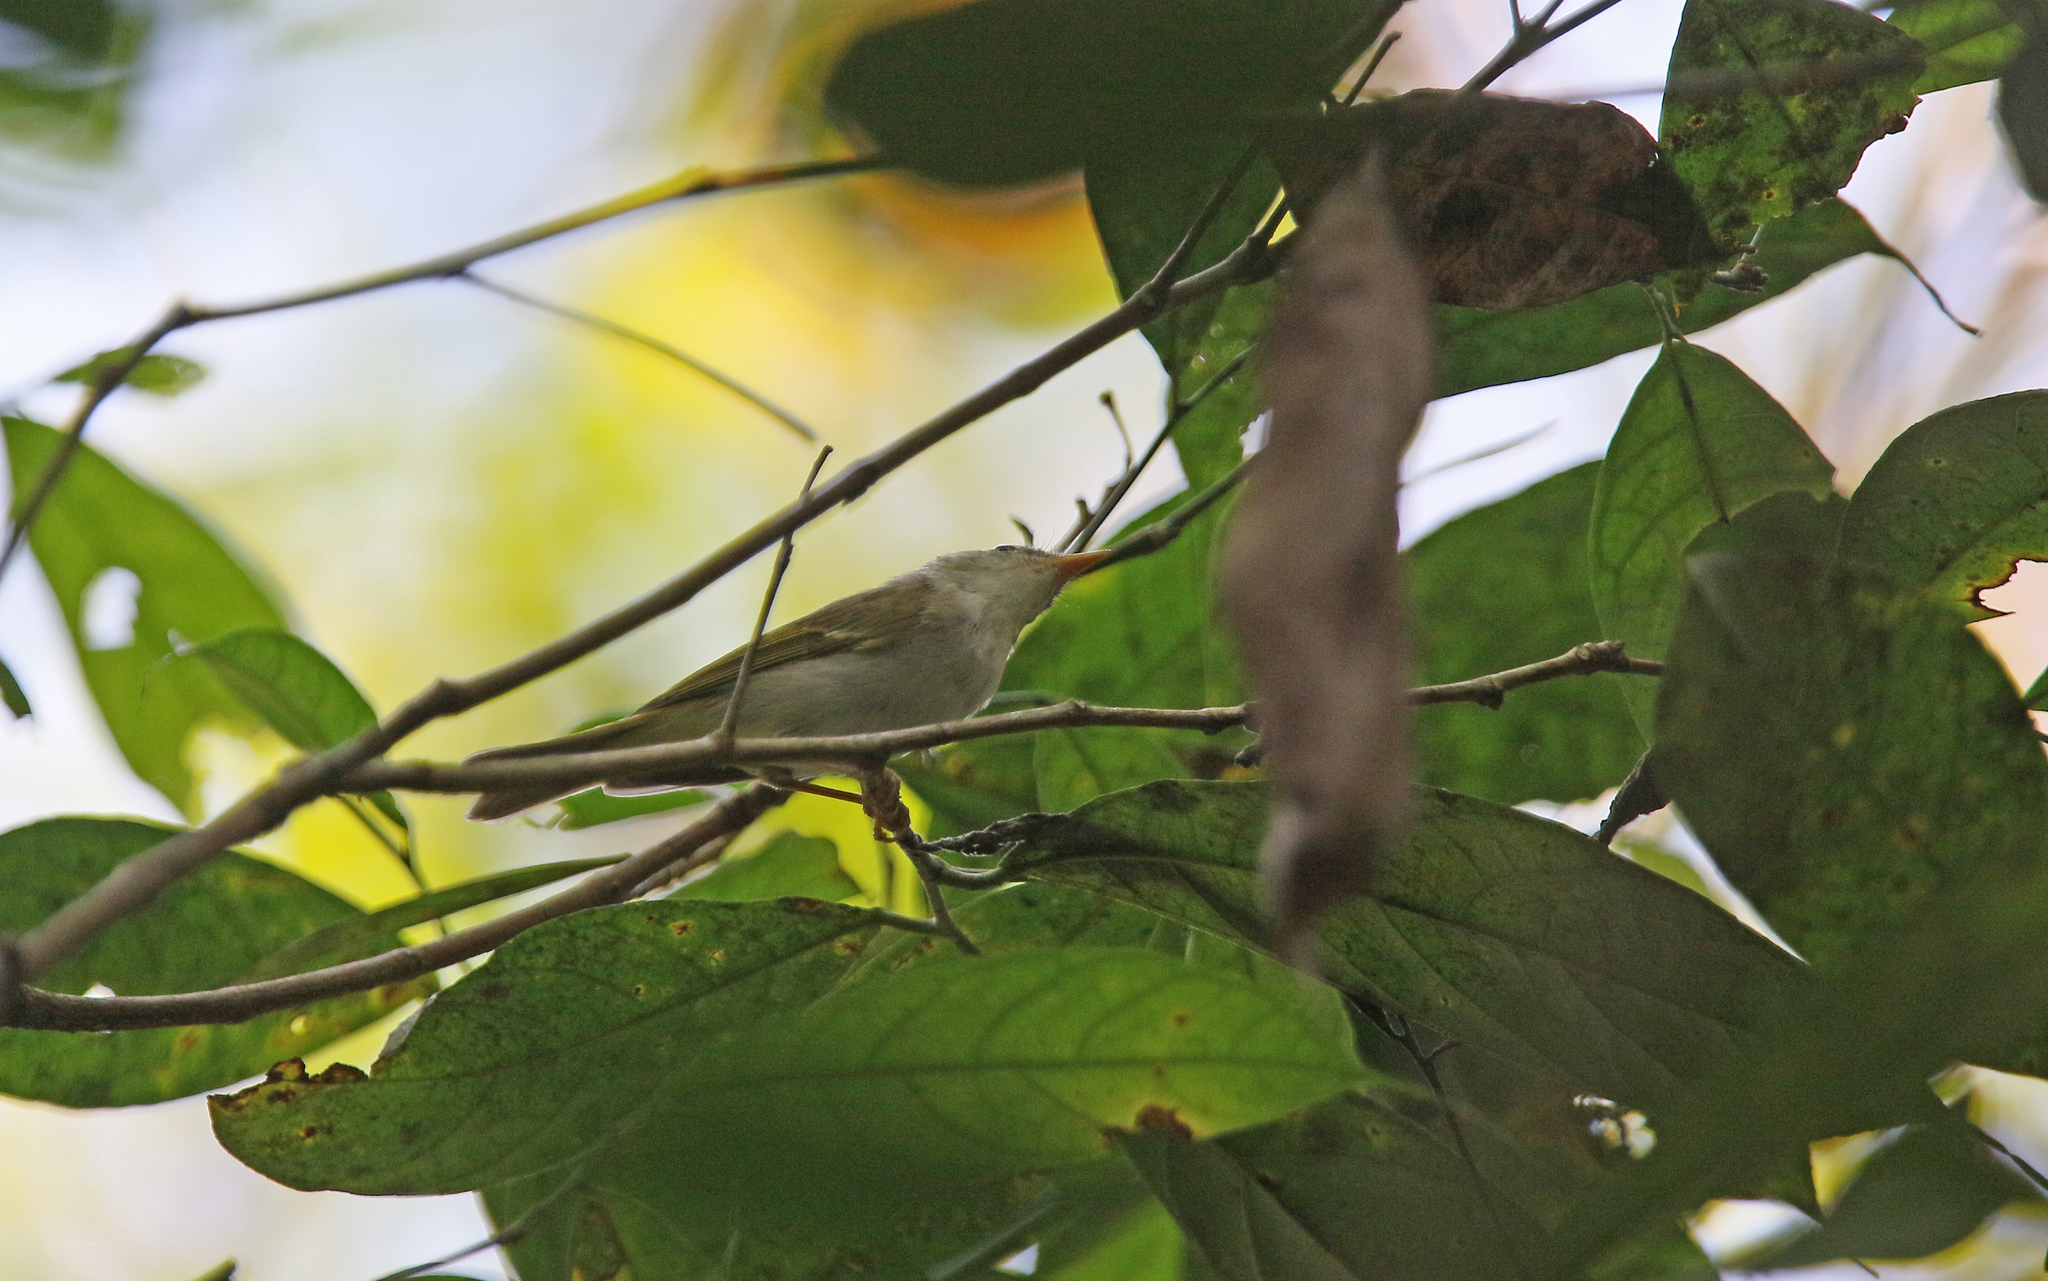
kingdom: Animalia
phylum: Chordata
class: Aves
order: Passeriformes
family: Phylloscopidae
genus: Phylloscopus
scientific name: Phylloscopus coronatus
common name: Eastern crowned warbler
